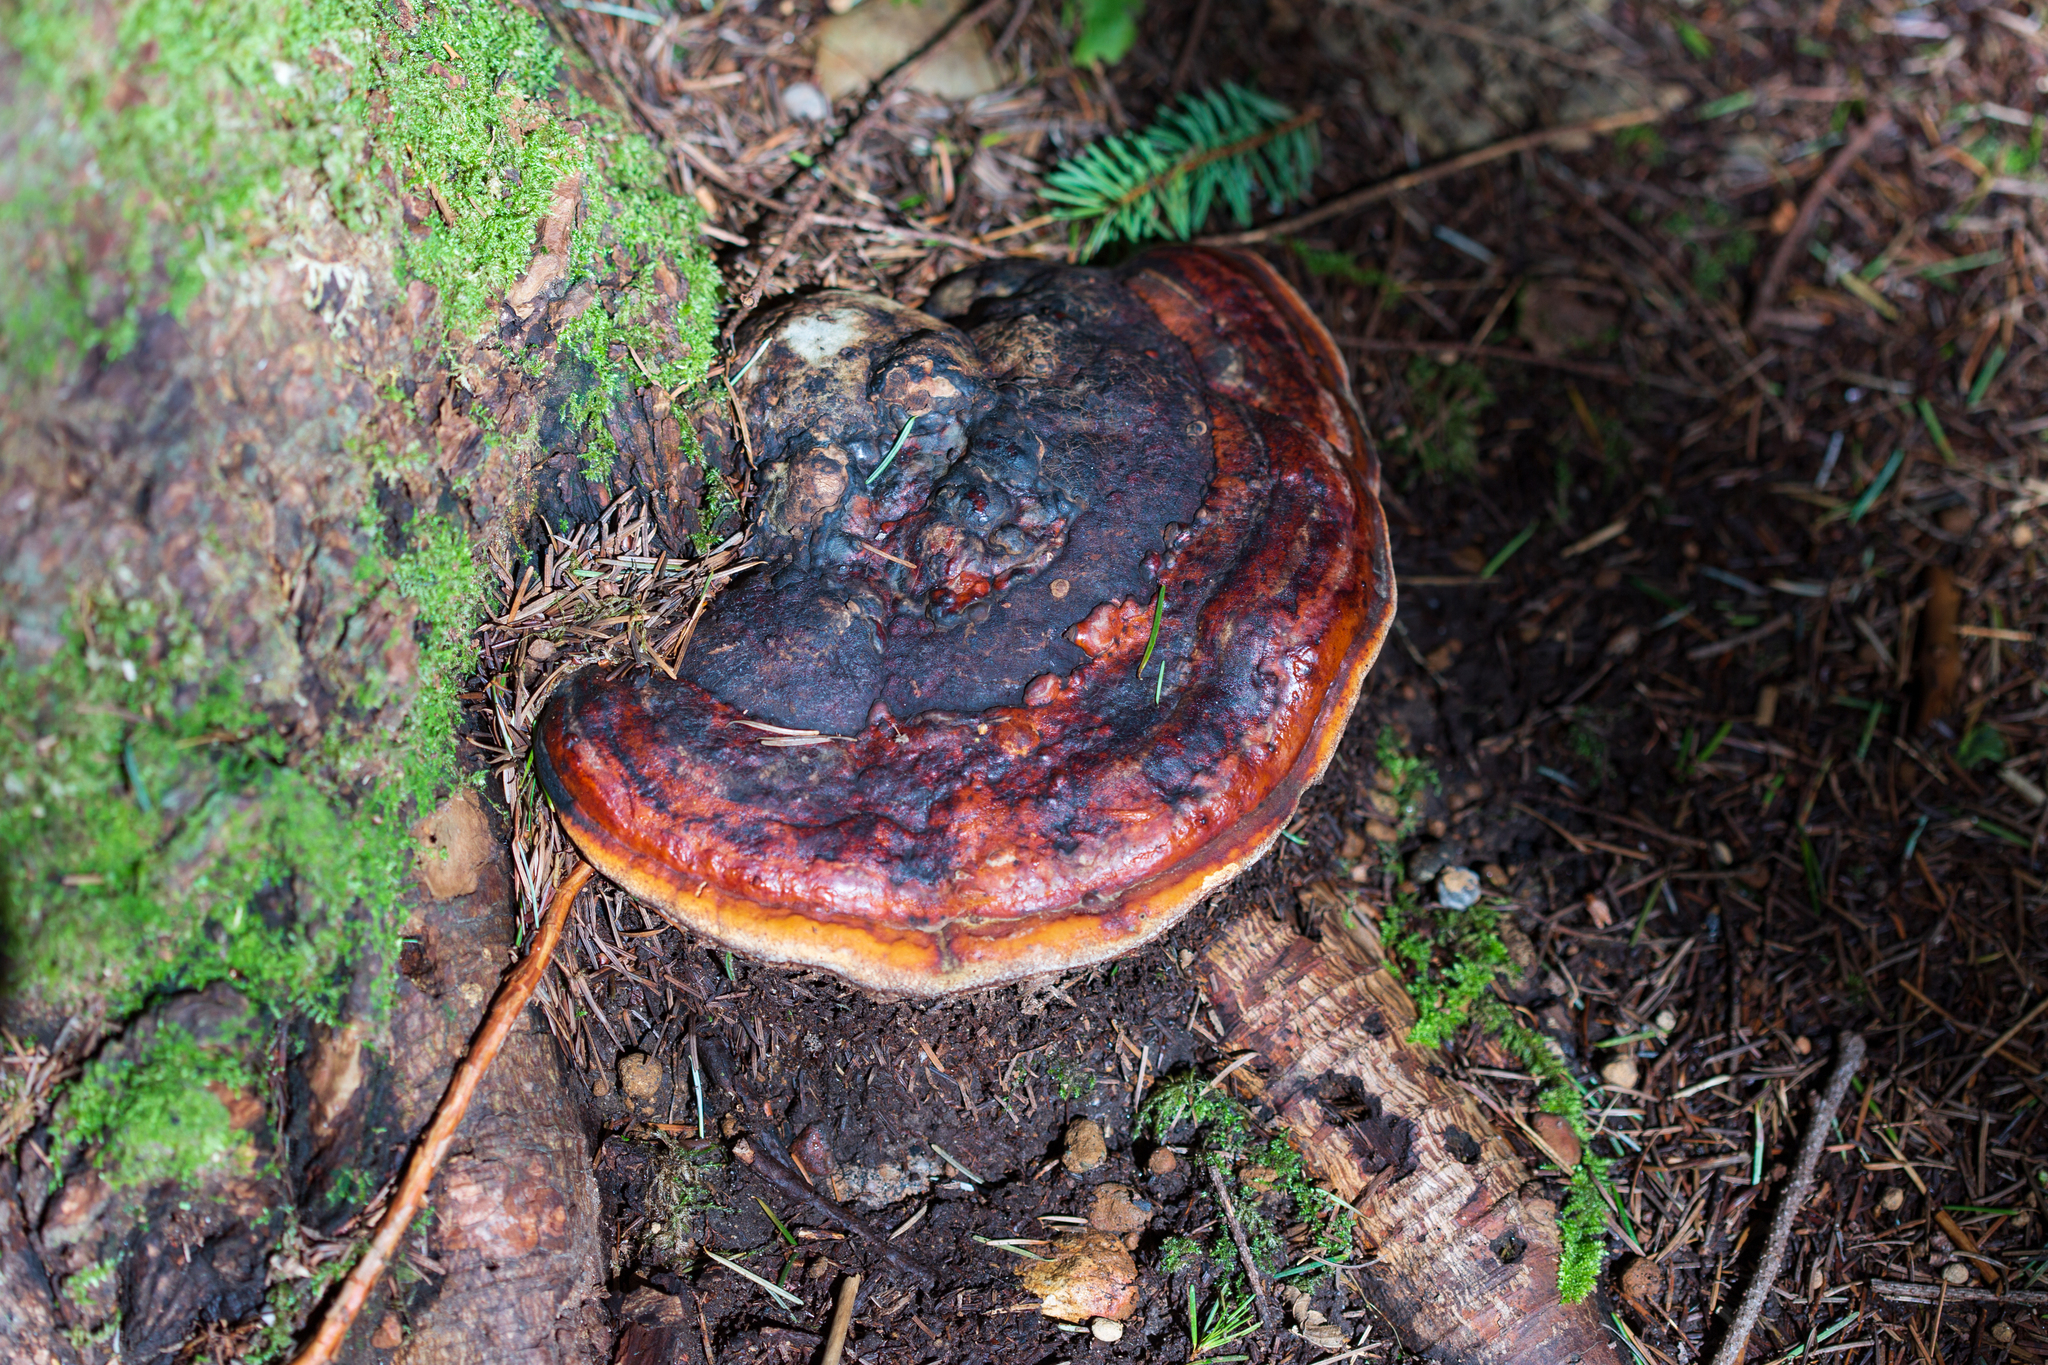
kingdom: Fungi
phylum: Basidiomycota
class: Agaricomycetes
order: Polyporales
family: Fomitopsidaceae
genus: Fomitopsis
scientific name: Fomitopsis mounceae
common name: Northern red belt
